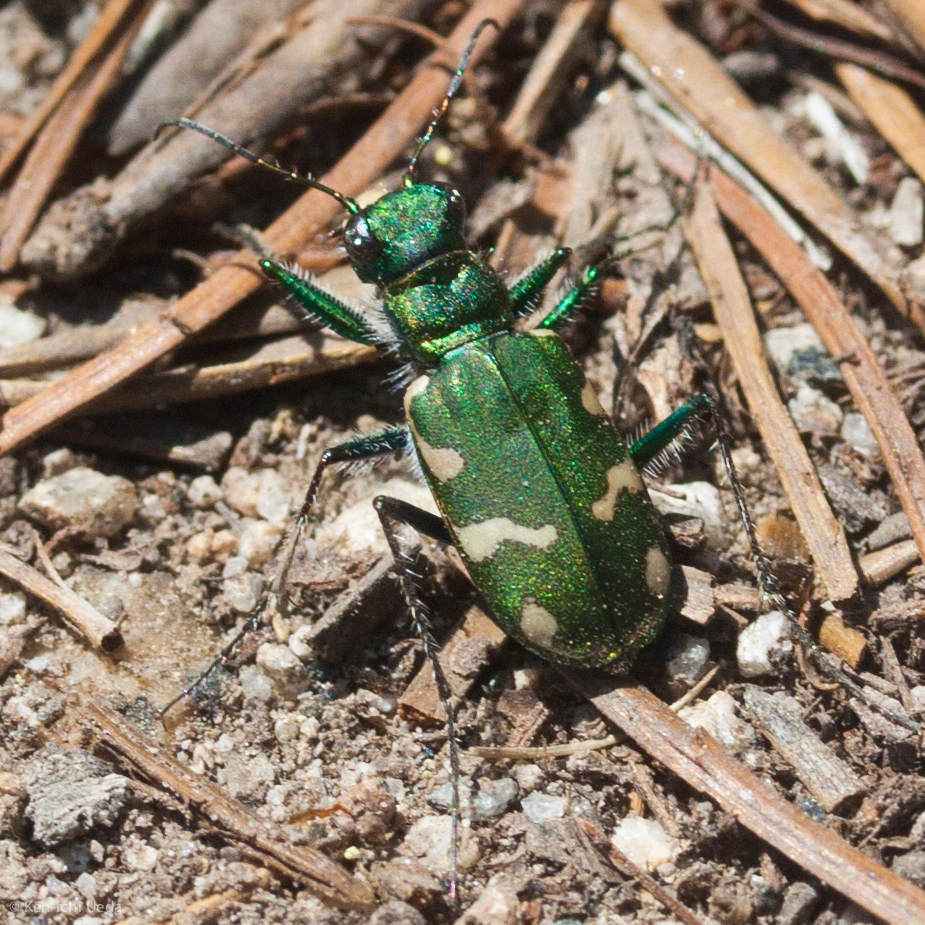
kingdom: Animalia
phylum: Arthropoda
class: Insecta
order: Coleoptera
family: Carabidae
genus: Cicindela
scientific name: Cicindela longilabris
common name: Boreal long-lipped tiger beetle
